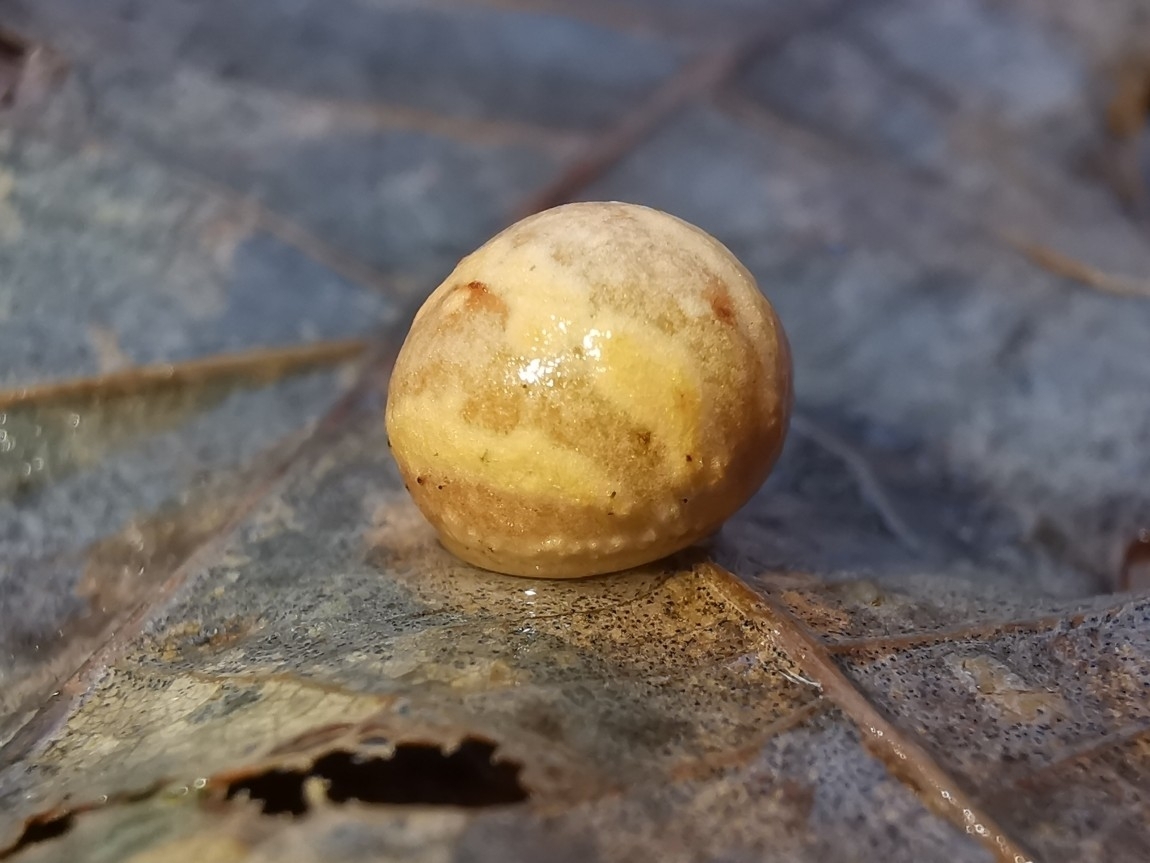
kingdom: Animalia
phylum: Arthropoda
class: Insecta
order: Hymenoptera
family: Cynipidae
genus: Cynips
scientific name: Cynips longiventris
